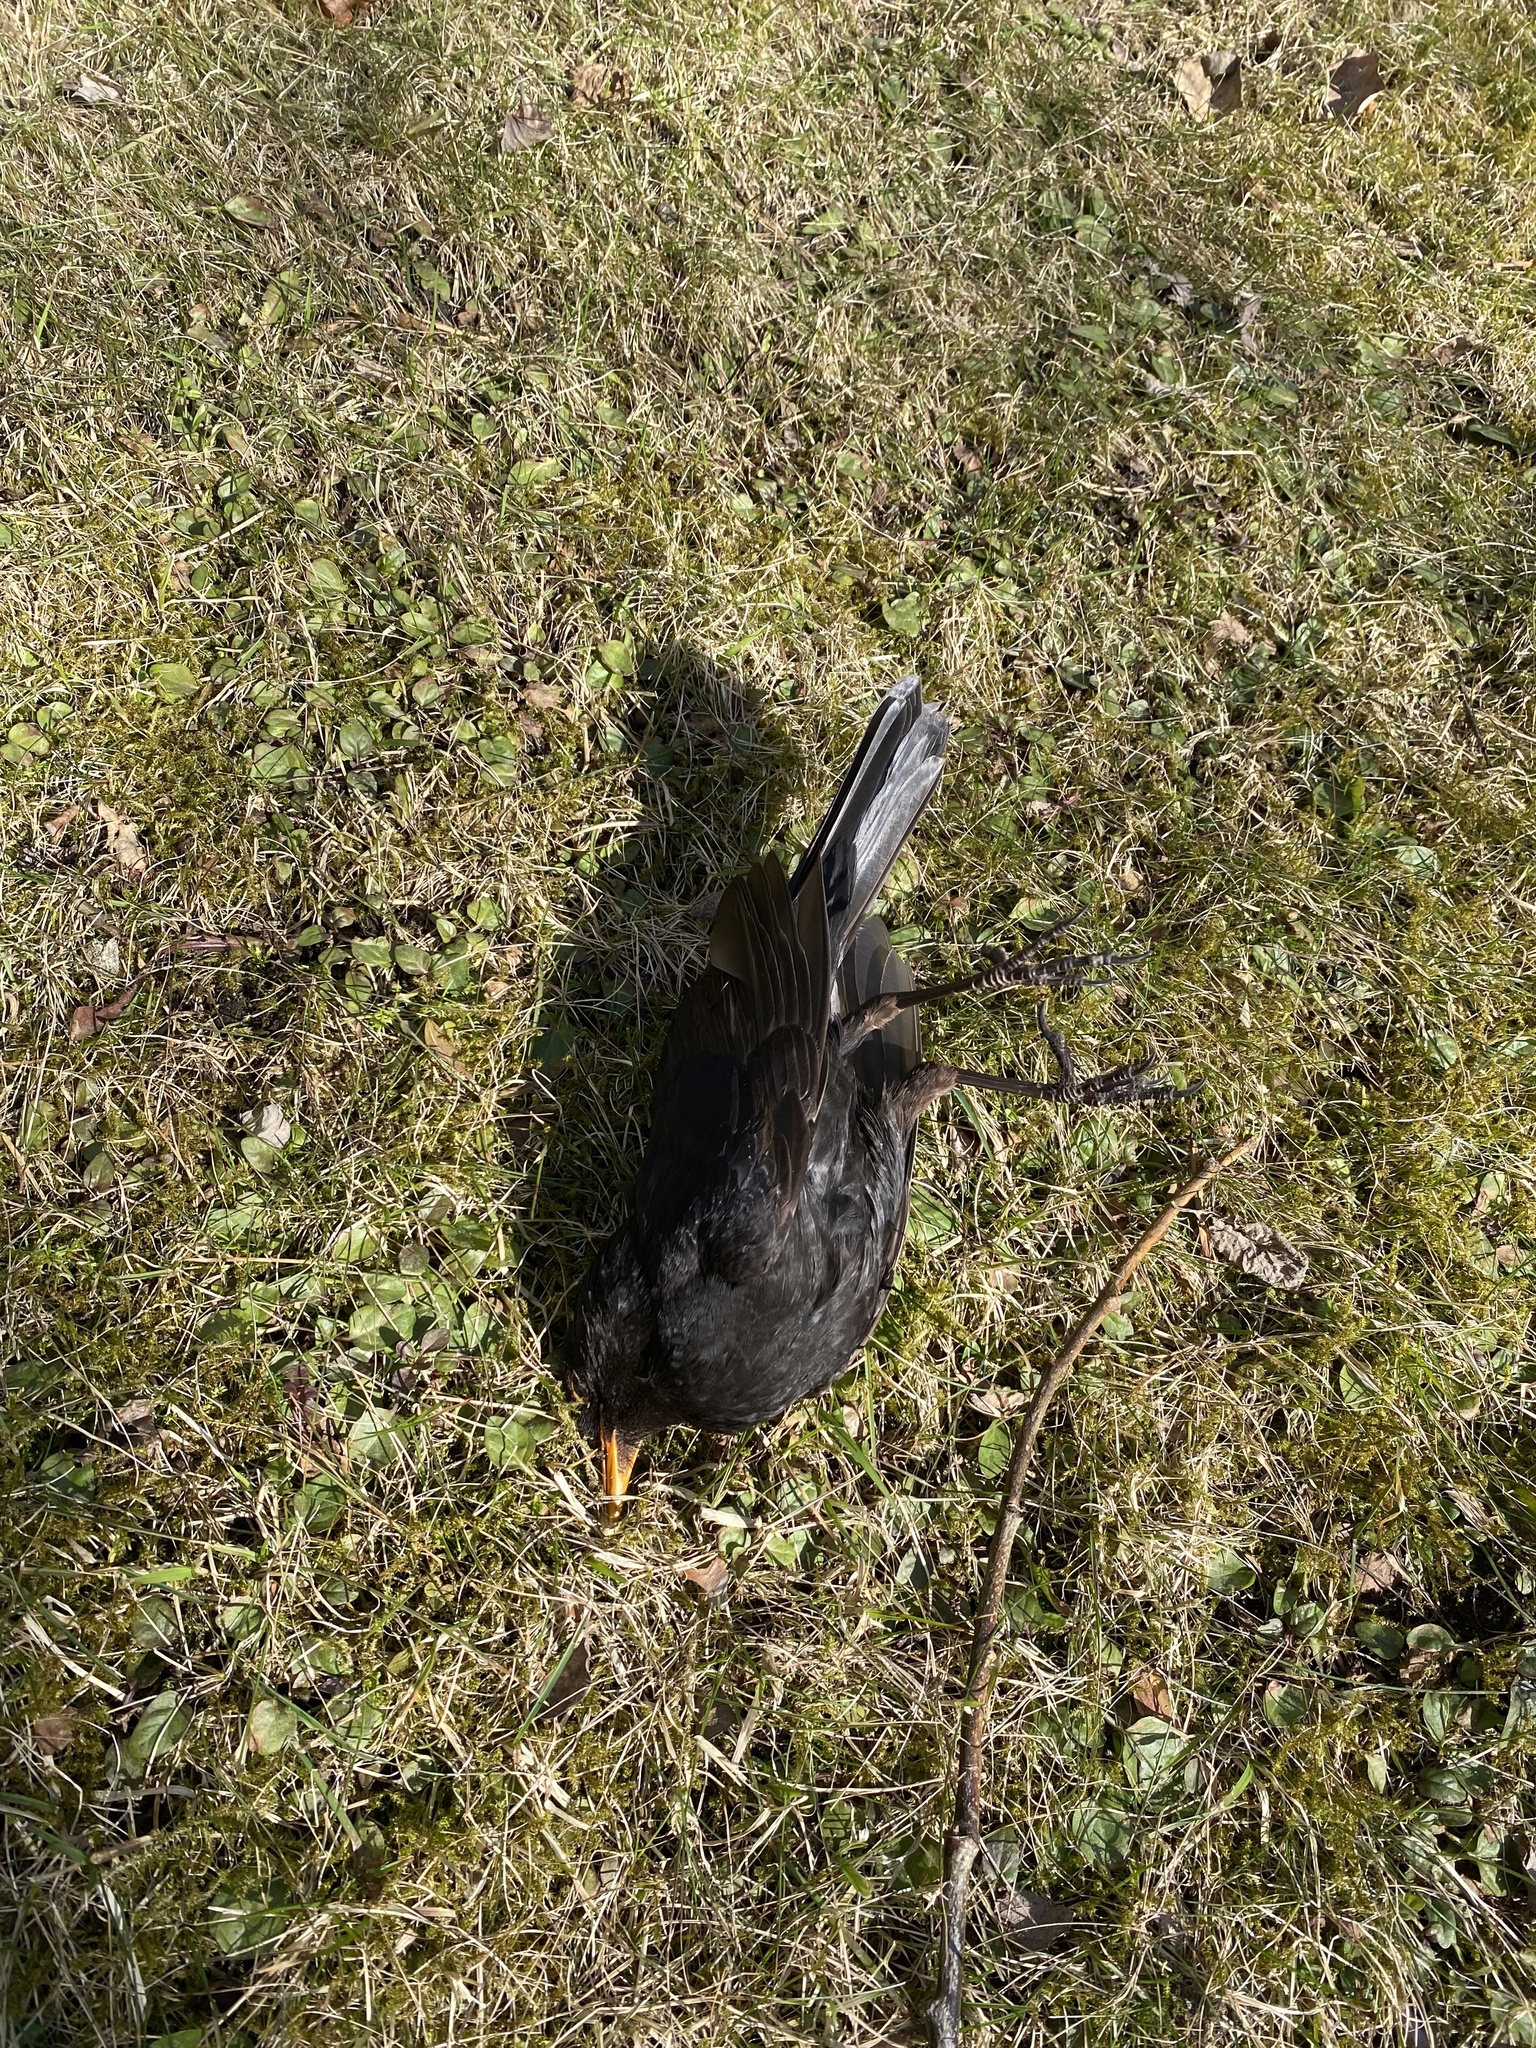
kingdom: Animalia
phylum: Chordata
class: Aves
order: Passeriformes
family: Turdidae
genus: Turdus
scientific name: Turdus merula
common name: Common blackbird
